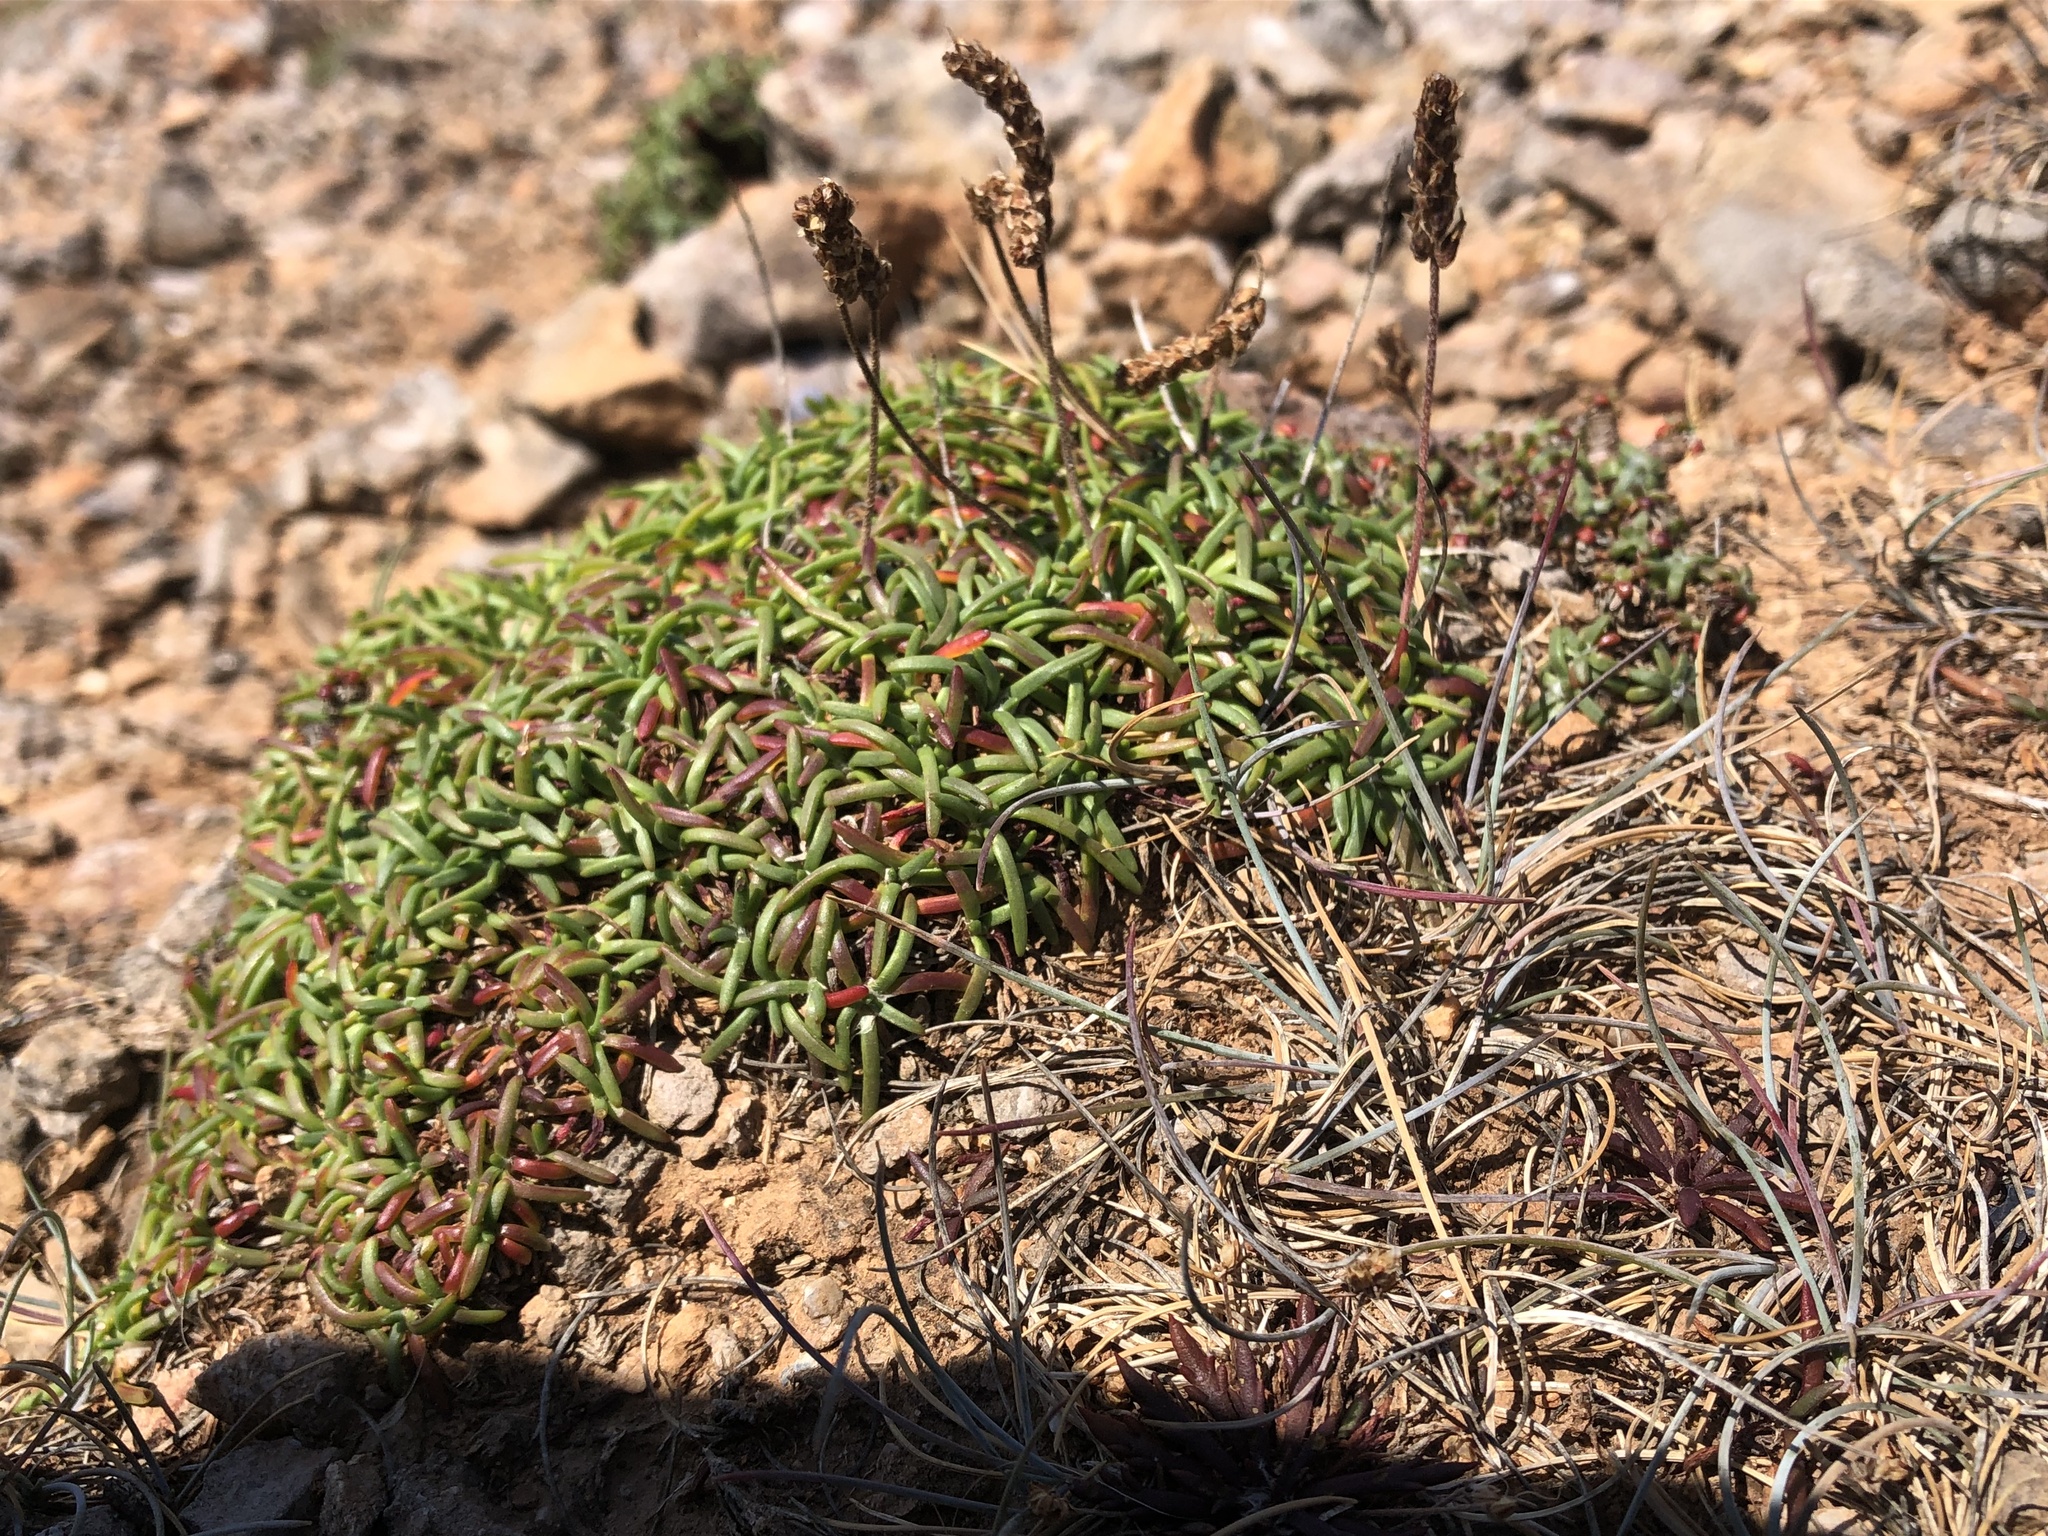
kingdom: Plantae
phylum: Tracheophyta
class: Magnoliopsida
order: Lamiales
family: Plantaginaceae
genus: Plantago
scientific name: Plantago maritima
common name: Sea plantain
